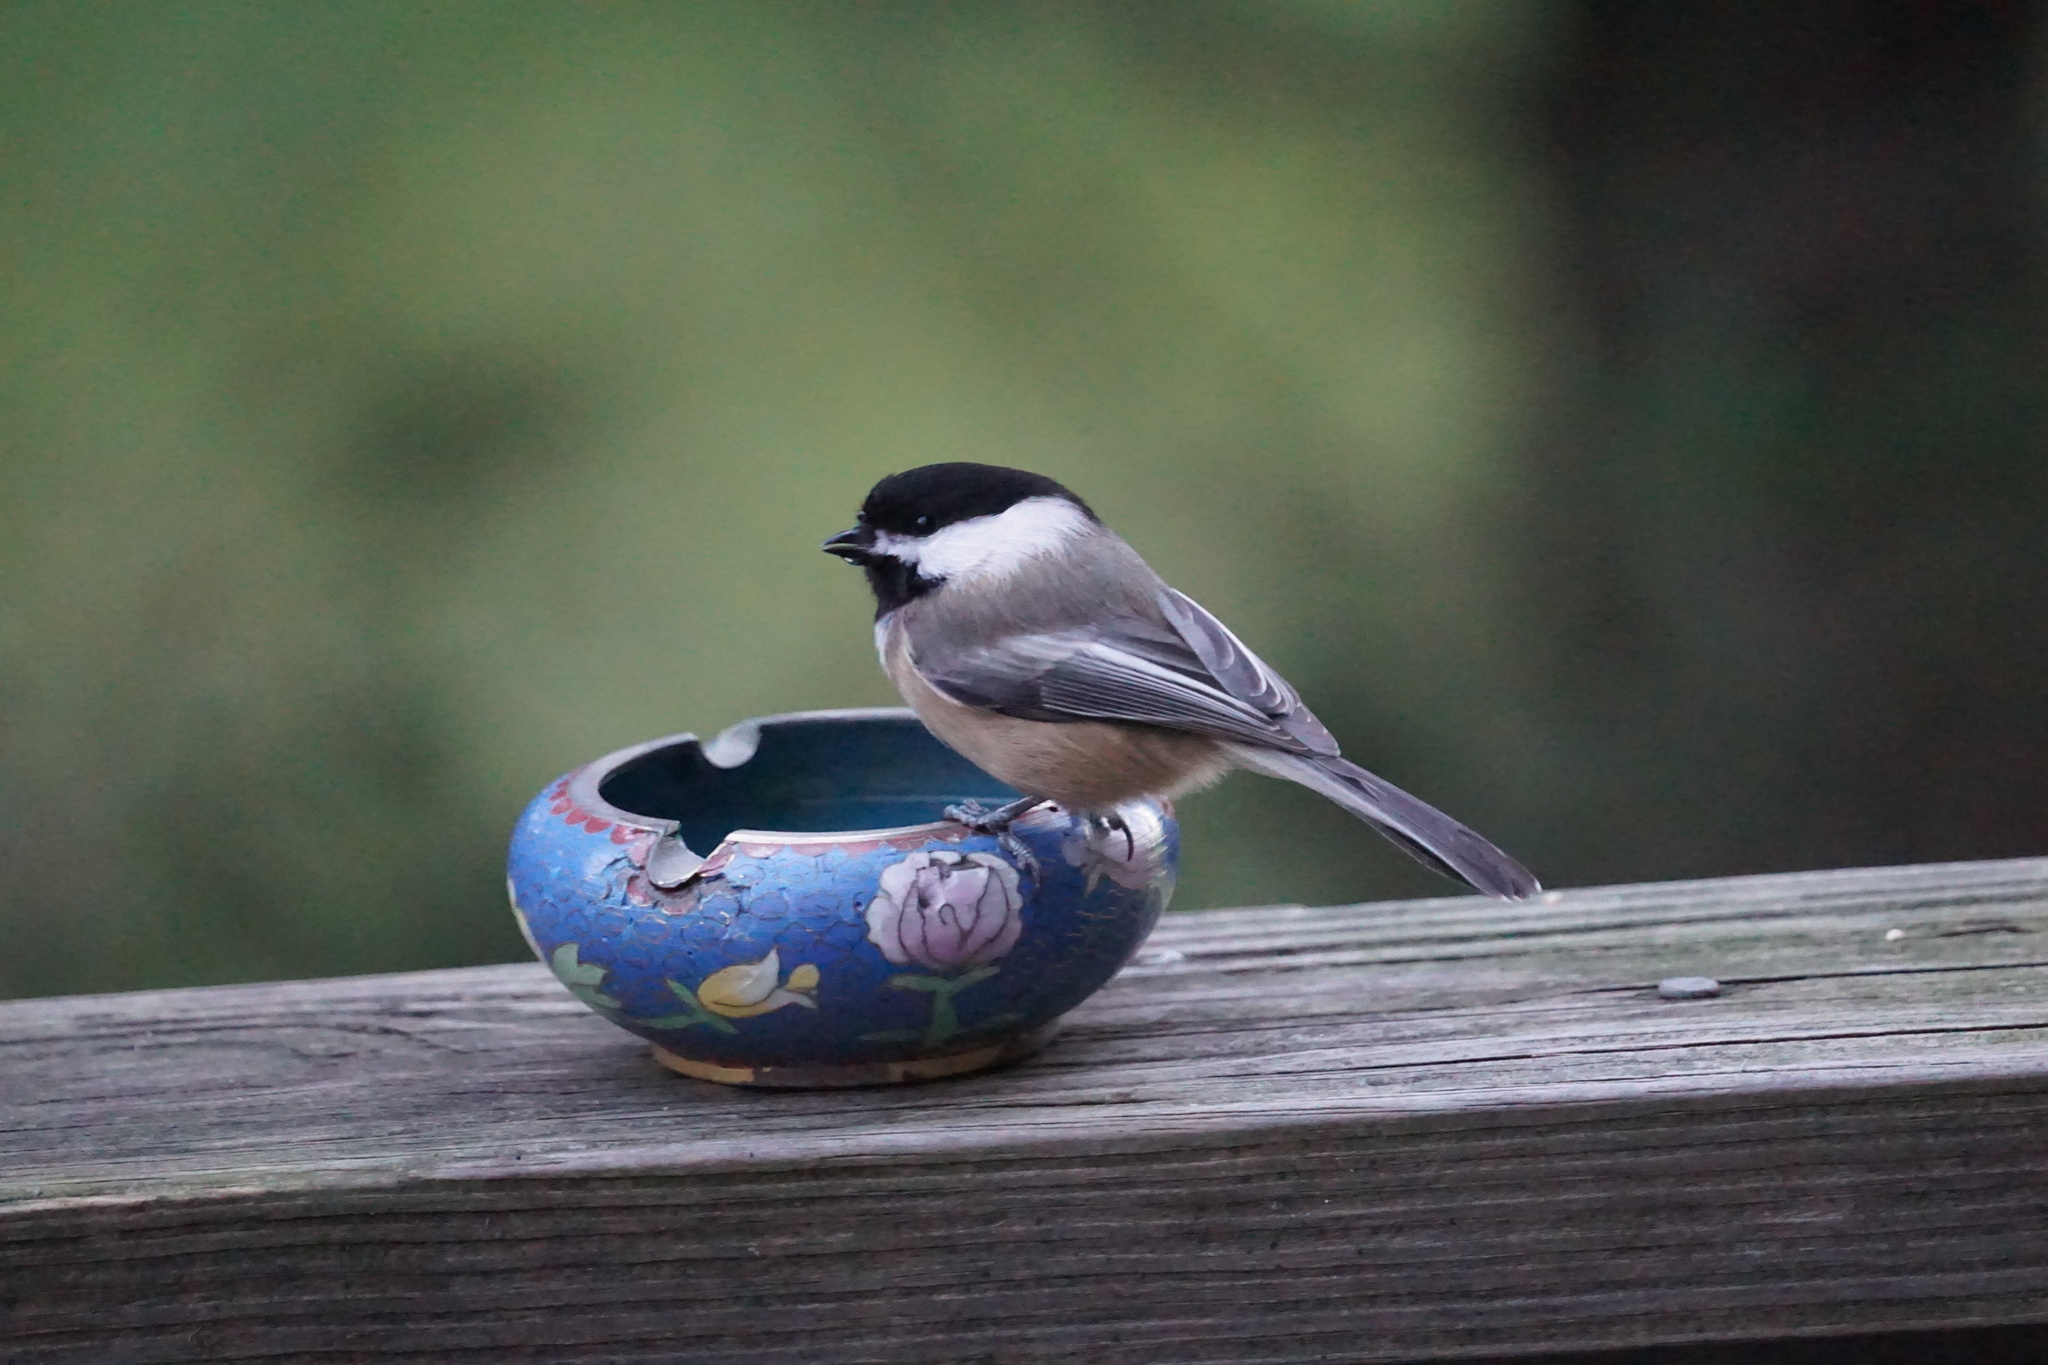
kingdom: Animalia
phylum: Chordata
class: Aves
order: Passeriformes
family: Paridae
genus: Poecile
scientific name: Poecile atricapillus
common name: Black-capped chickadee
